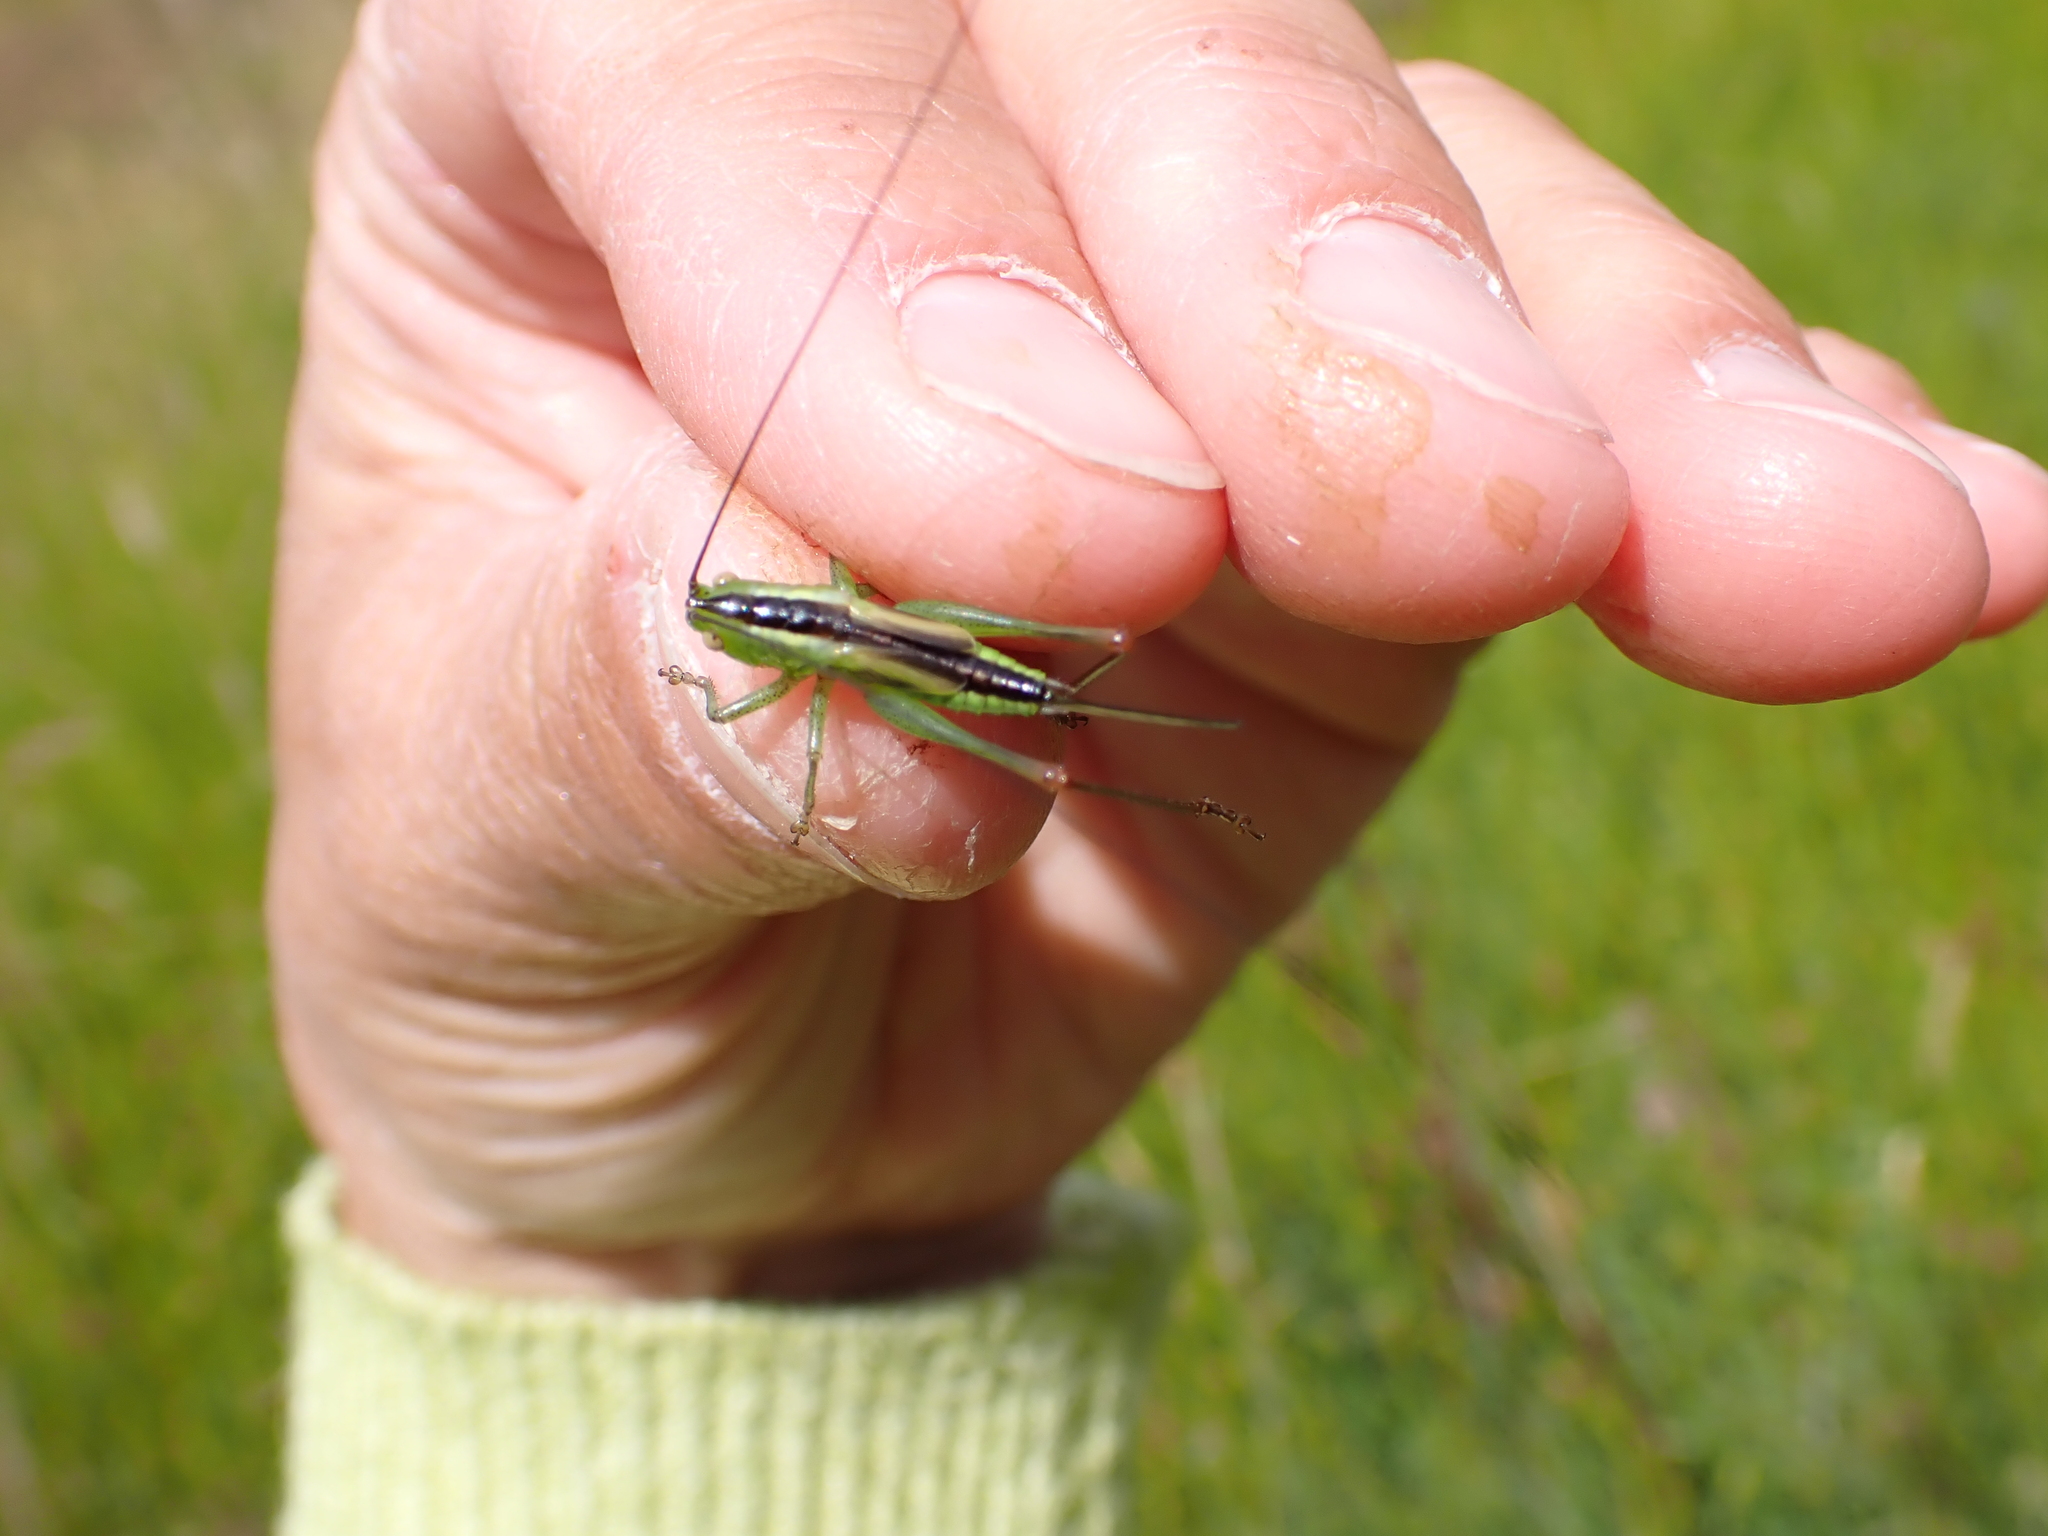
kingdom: Animalia
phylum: Arthropoda
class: Insecta
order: Orthoptera
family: Tettigoniidae
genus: Conocephalus
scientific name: Conocephalus fuscus
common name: Long-winged conehead
